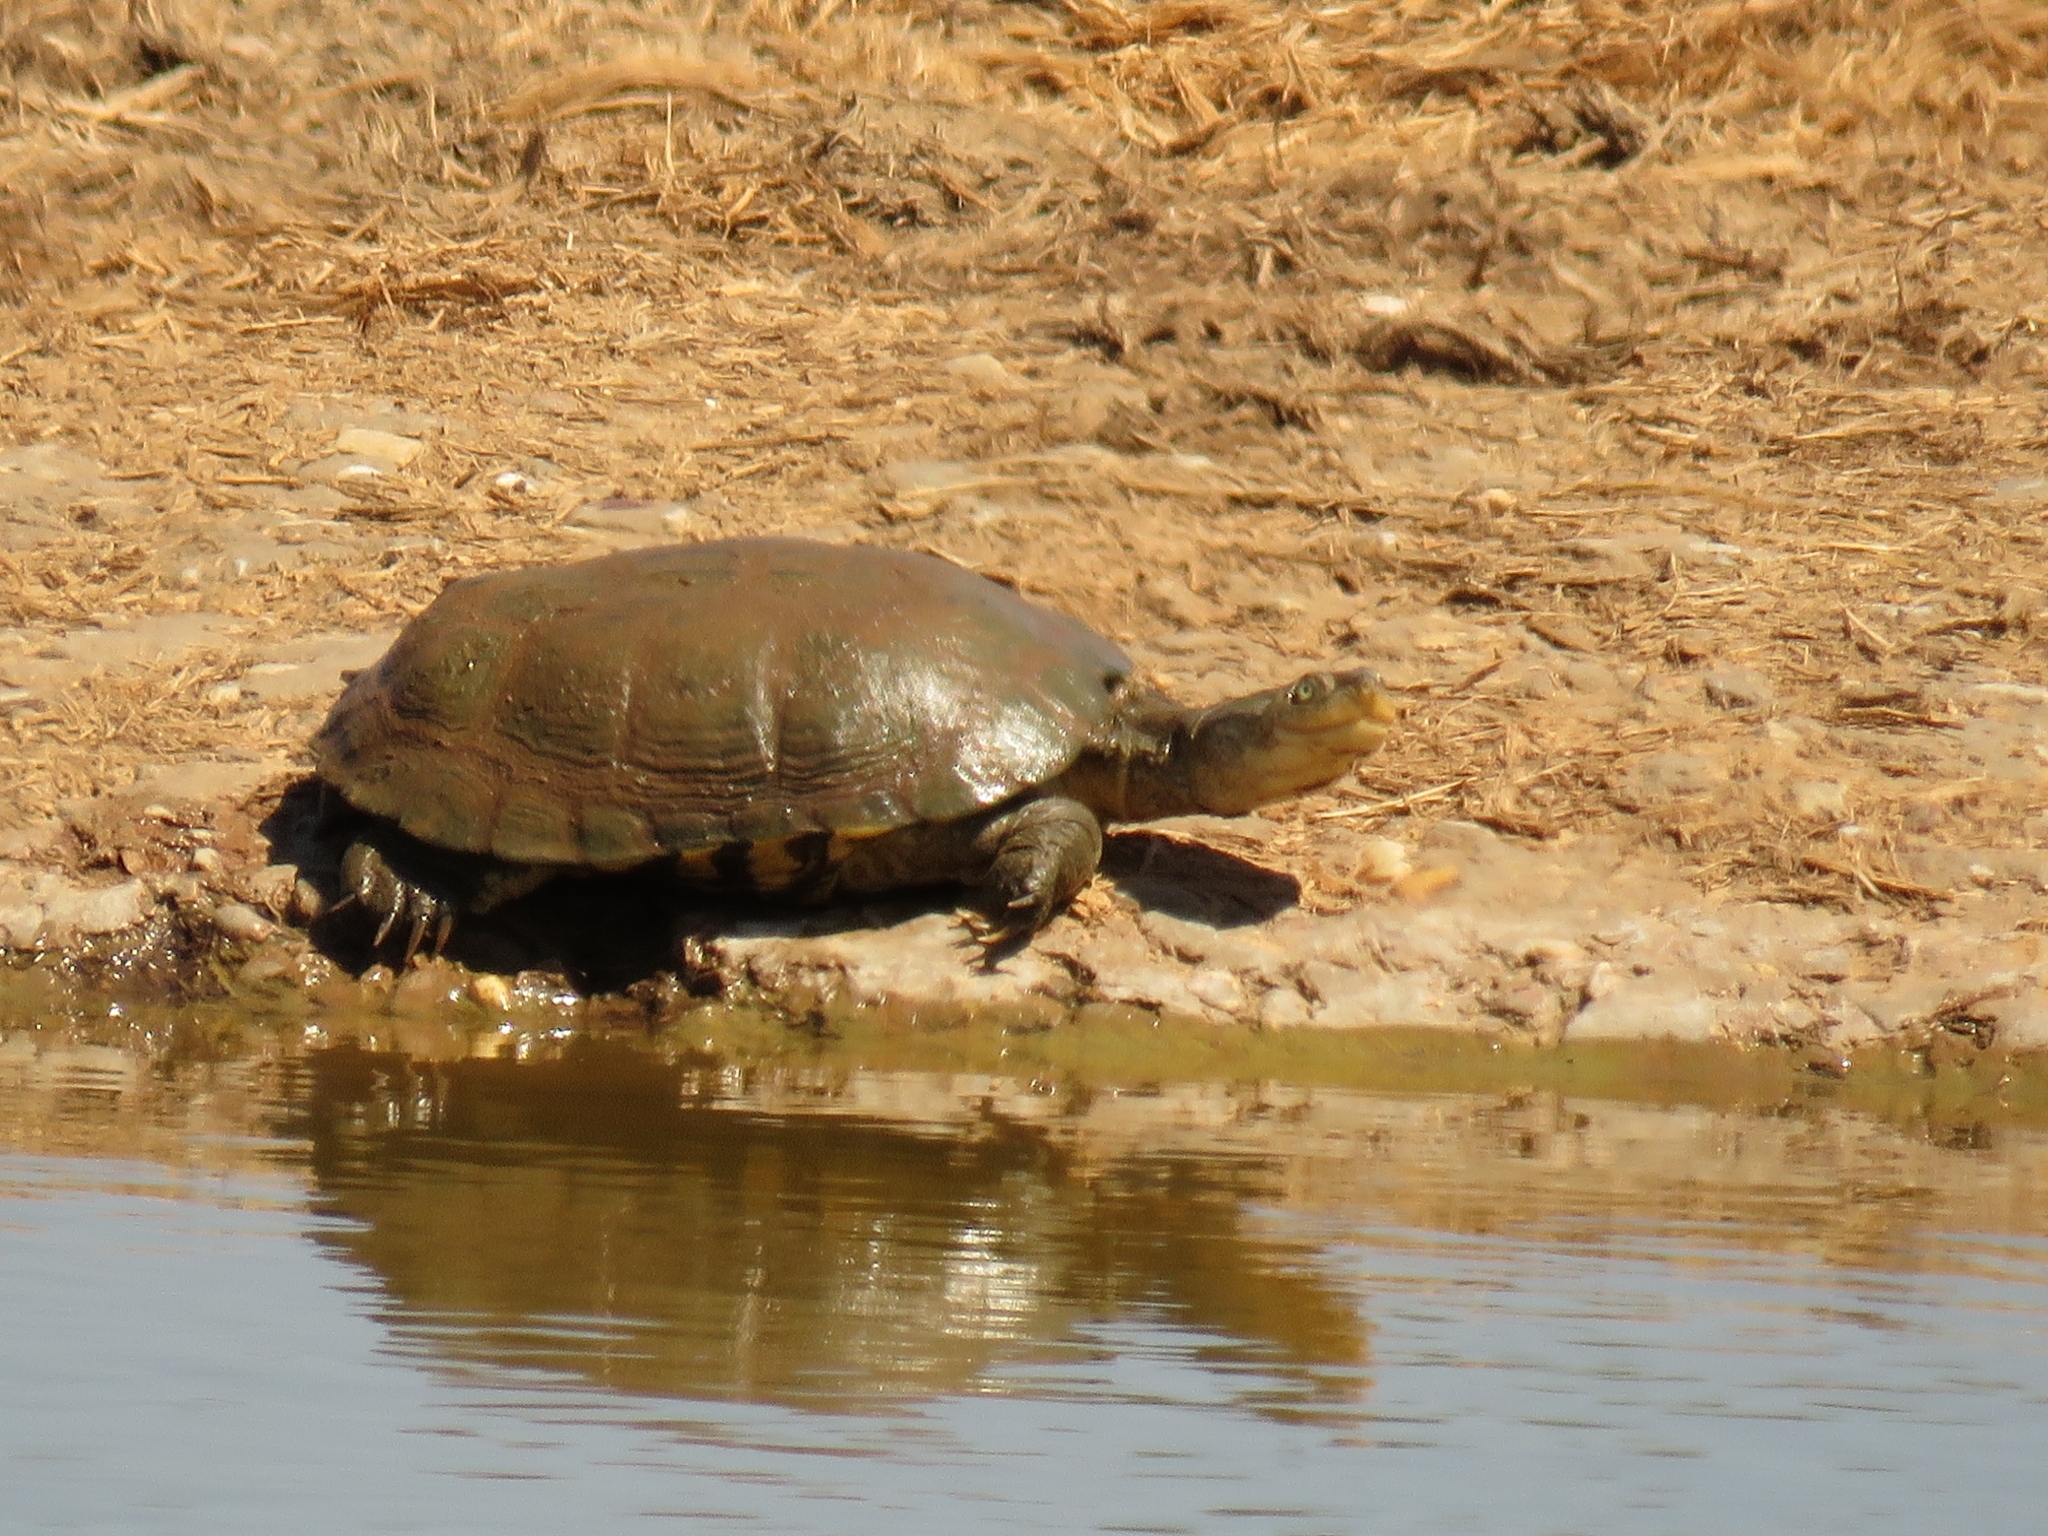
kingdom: Animalia
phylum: Chordata
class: Testudines
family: Pelomedusidae
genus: Pelomedusa
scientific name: Pelomedusa galeata
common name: South african helmeted terrapin
